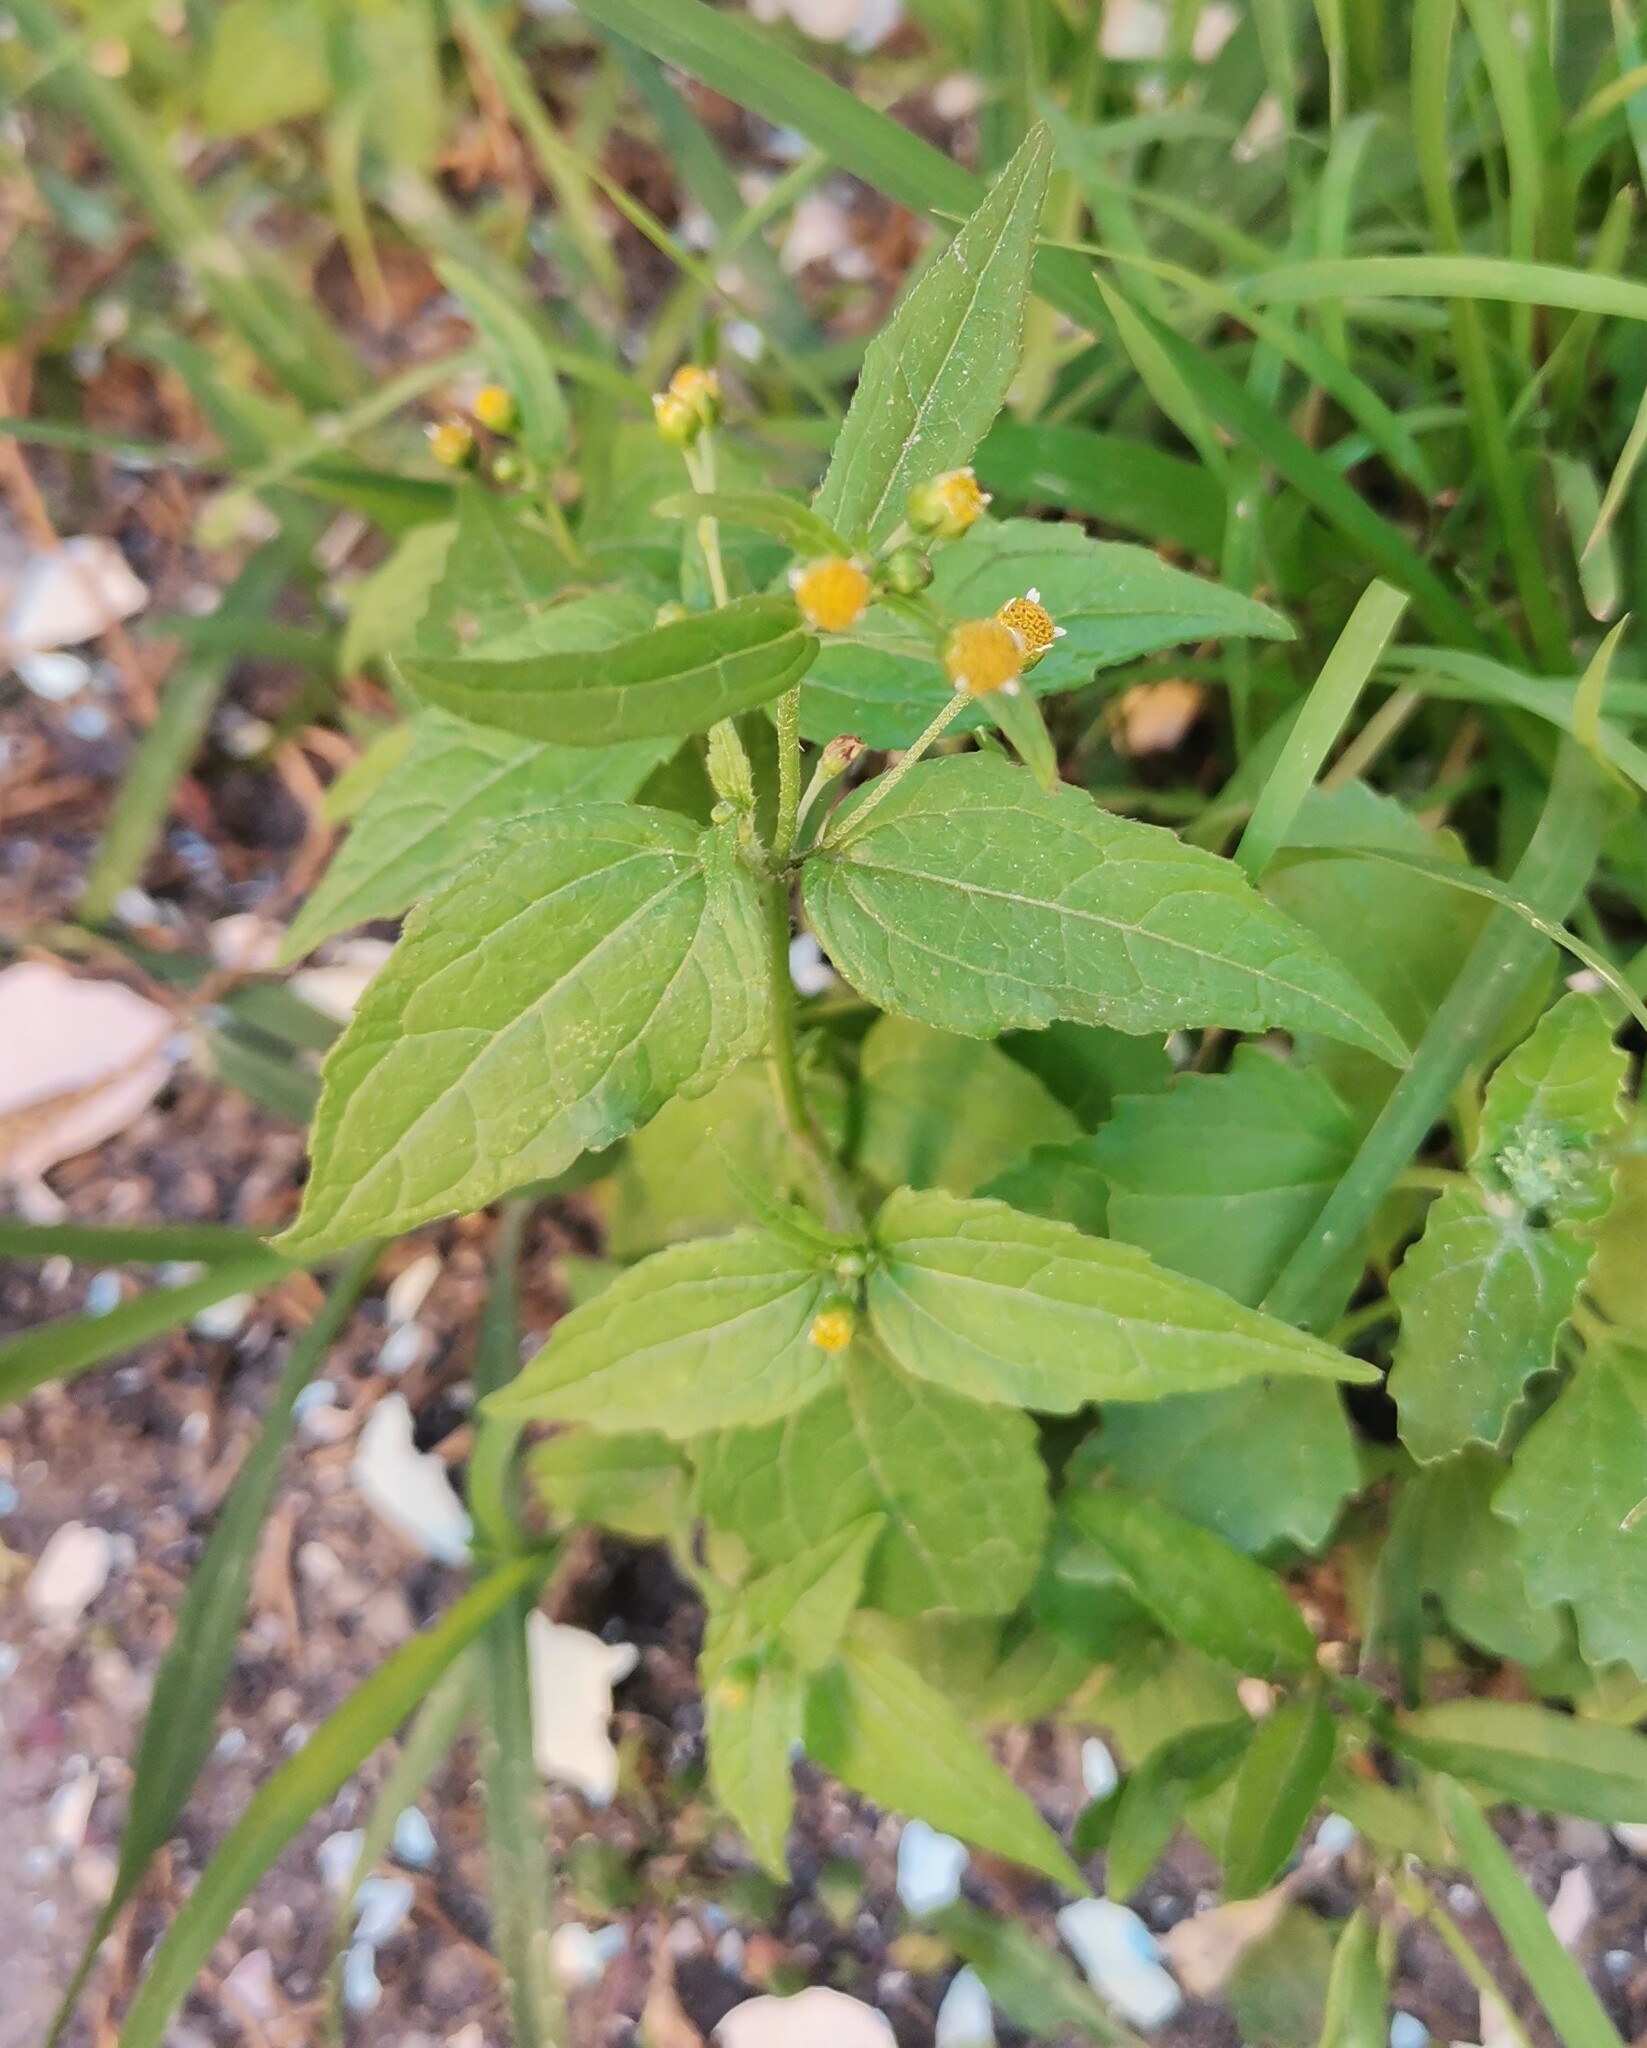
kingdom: Plantae
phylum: Tracheophyta
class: Magnoliopsida
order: Asterales
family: Asteraceae
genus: Galinsoga
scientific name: Galinsoga parviflora
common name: Gallant soldier
